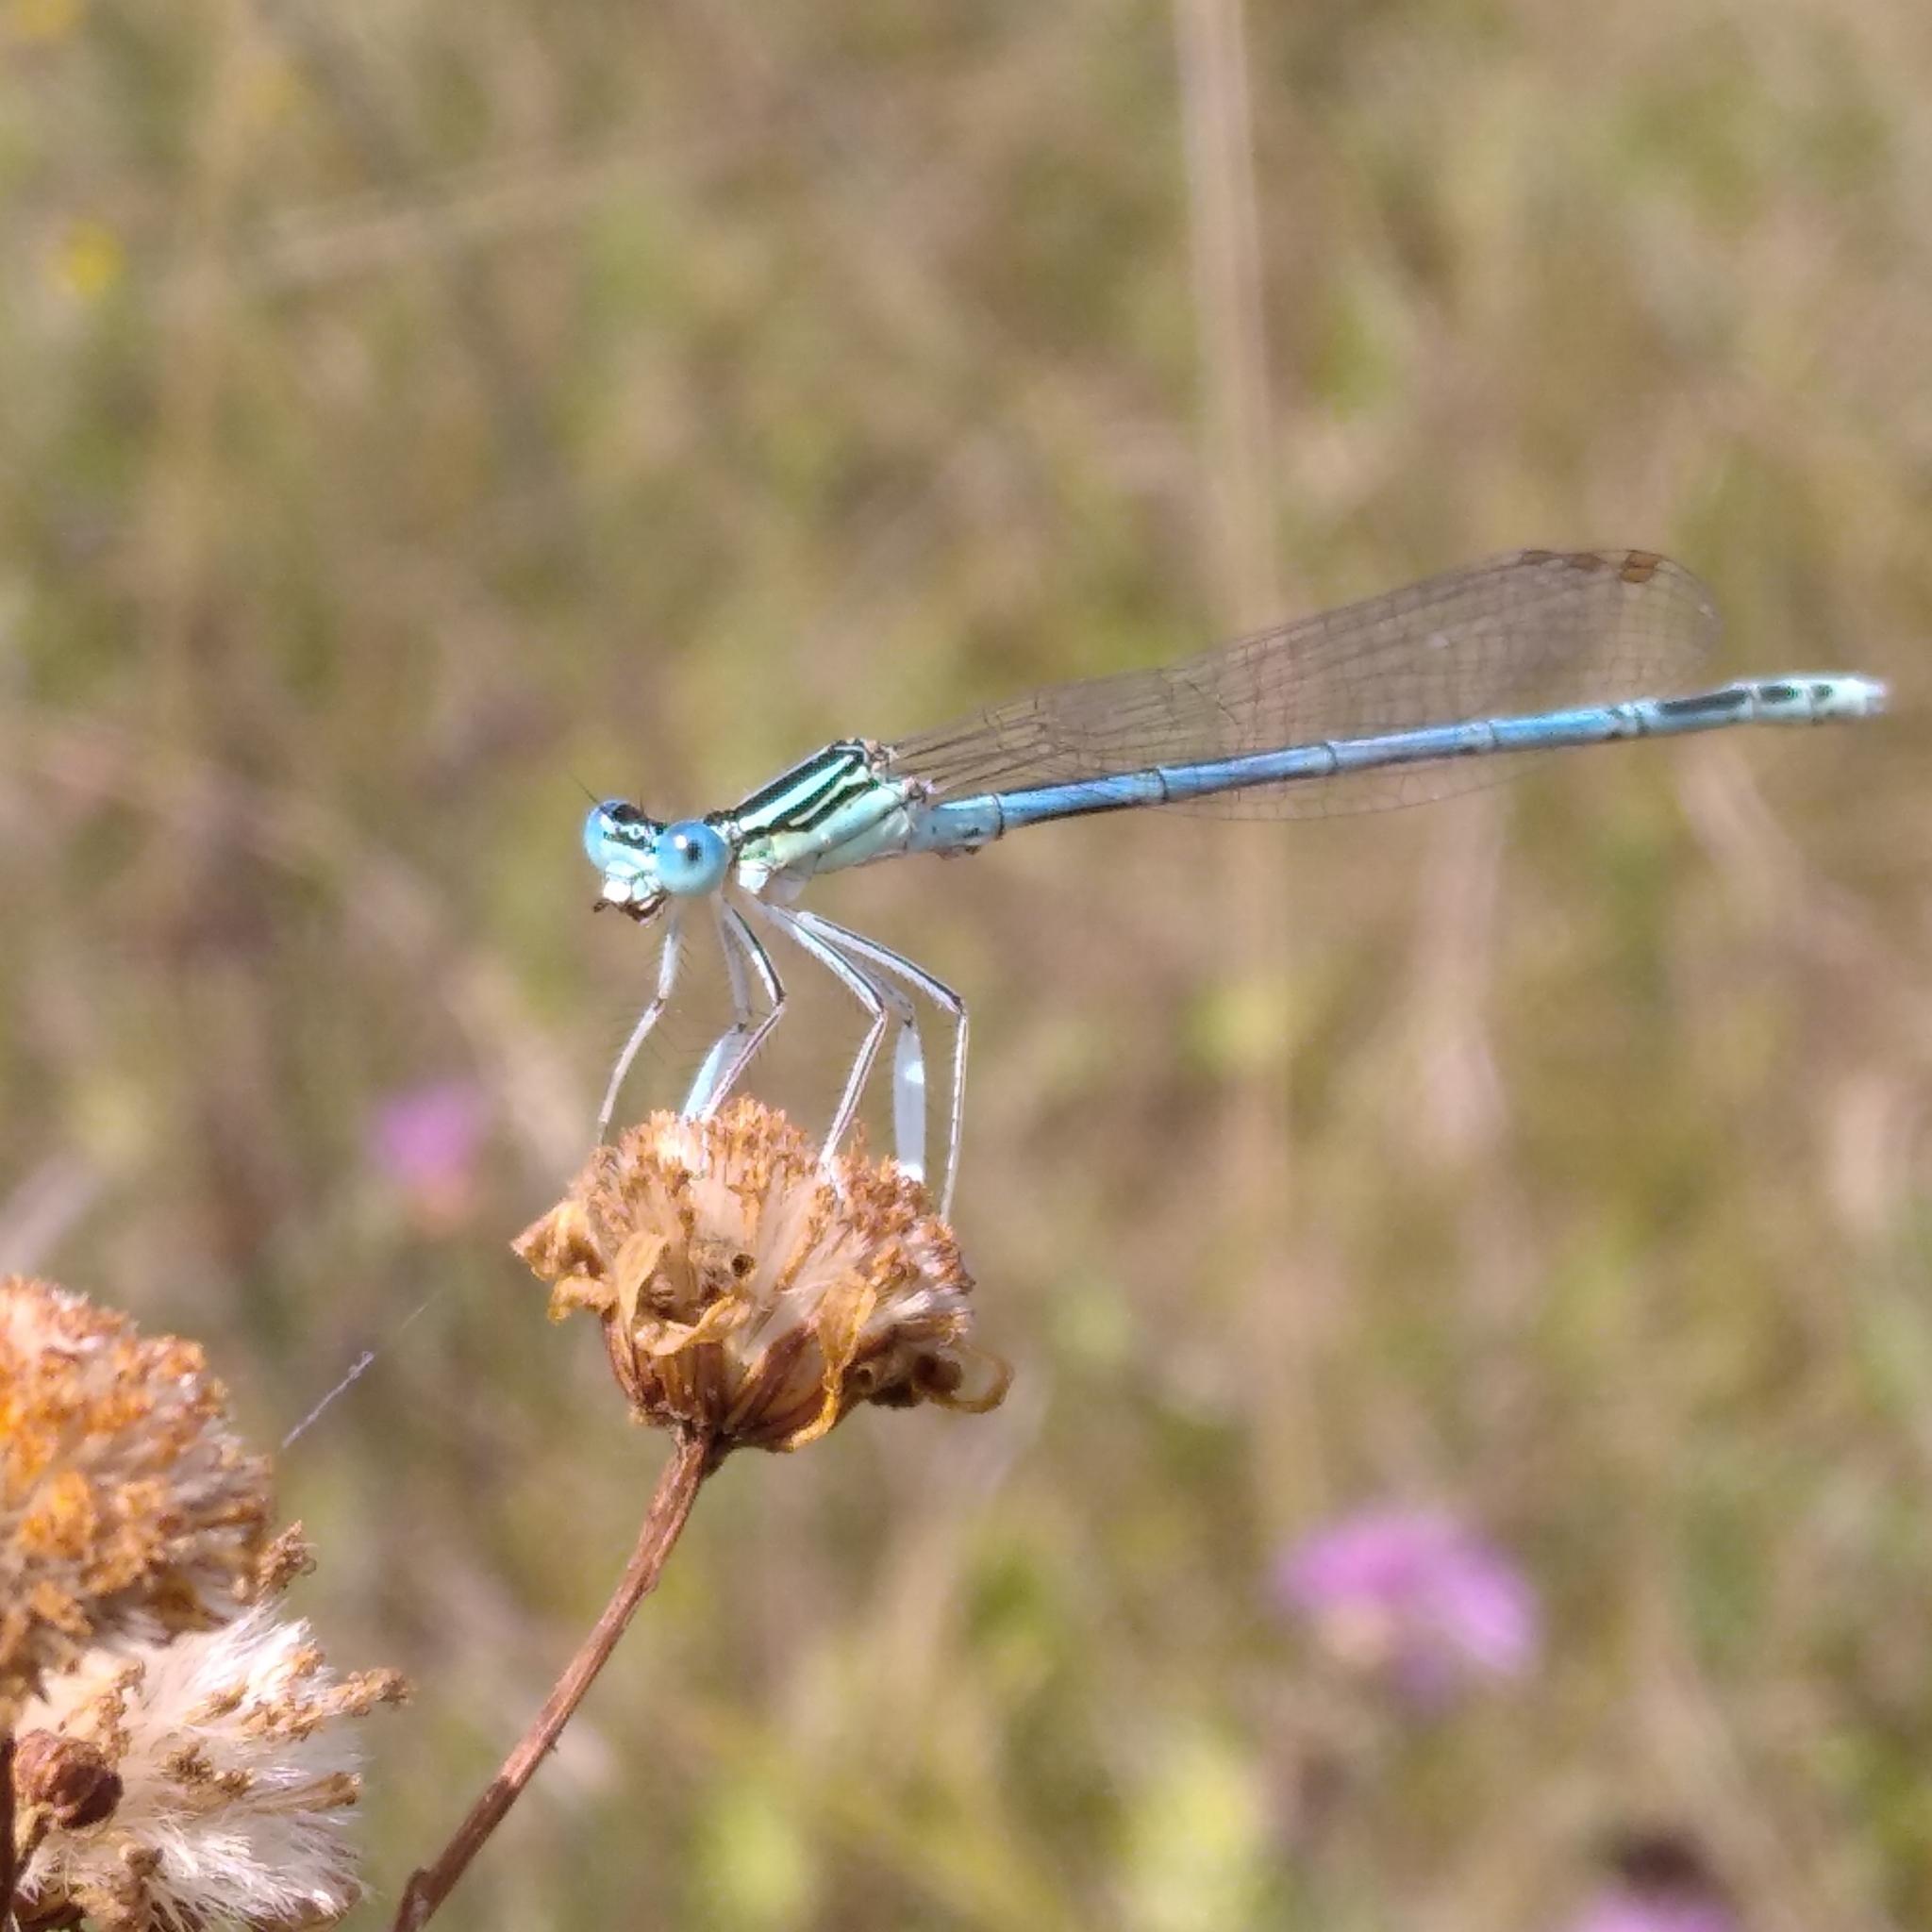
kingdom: Animalia
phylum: Arthropoda
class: Insecta
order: Odonata
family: Platycnemididae
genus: Platycnemis
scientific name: Platycnemis pennipes
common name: White-legged damselfly
